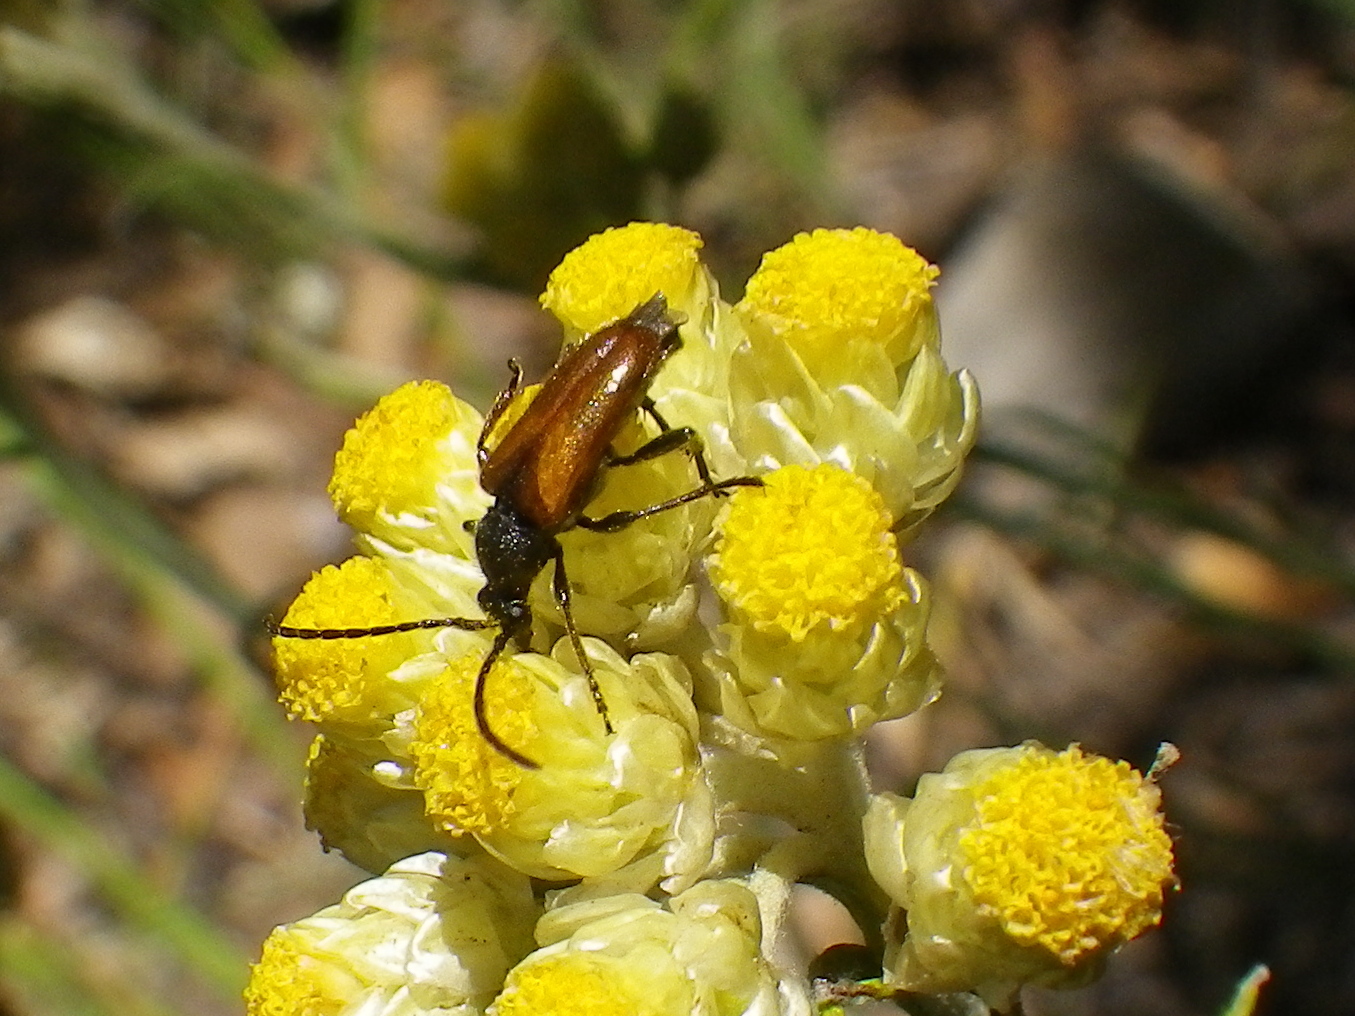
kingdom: Animalia
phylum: Arthropoda
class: Insecta
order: Coleoptera
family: Cerambycidae
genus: Pseudovadonia
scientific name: Pseudovadonia livida
